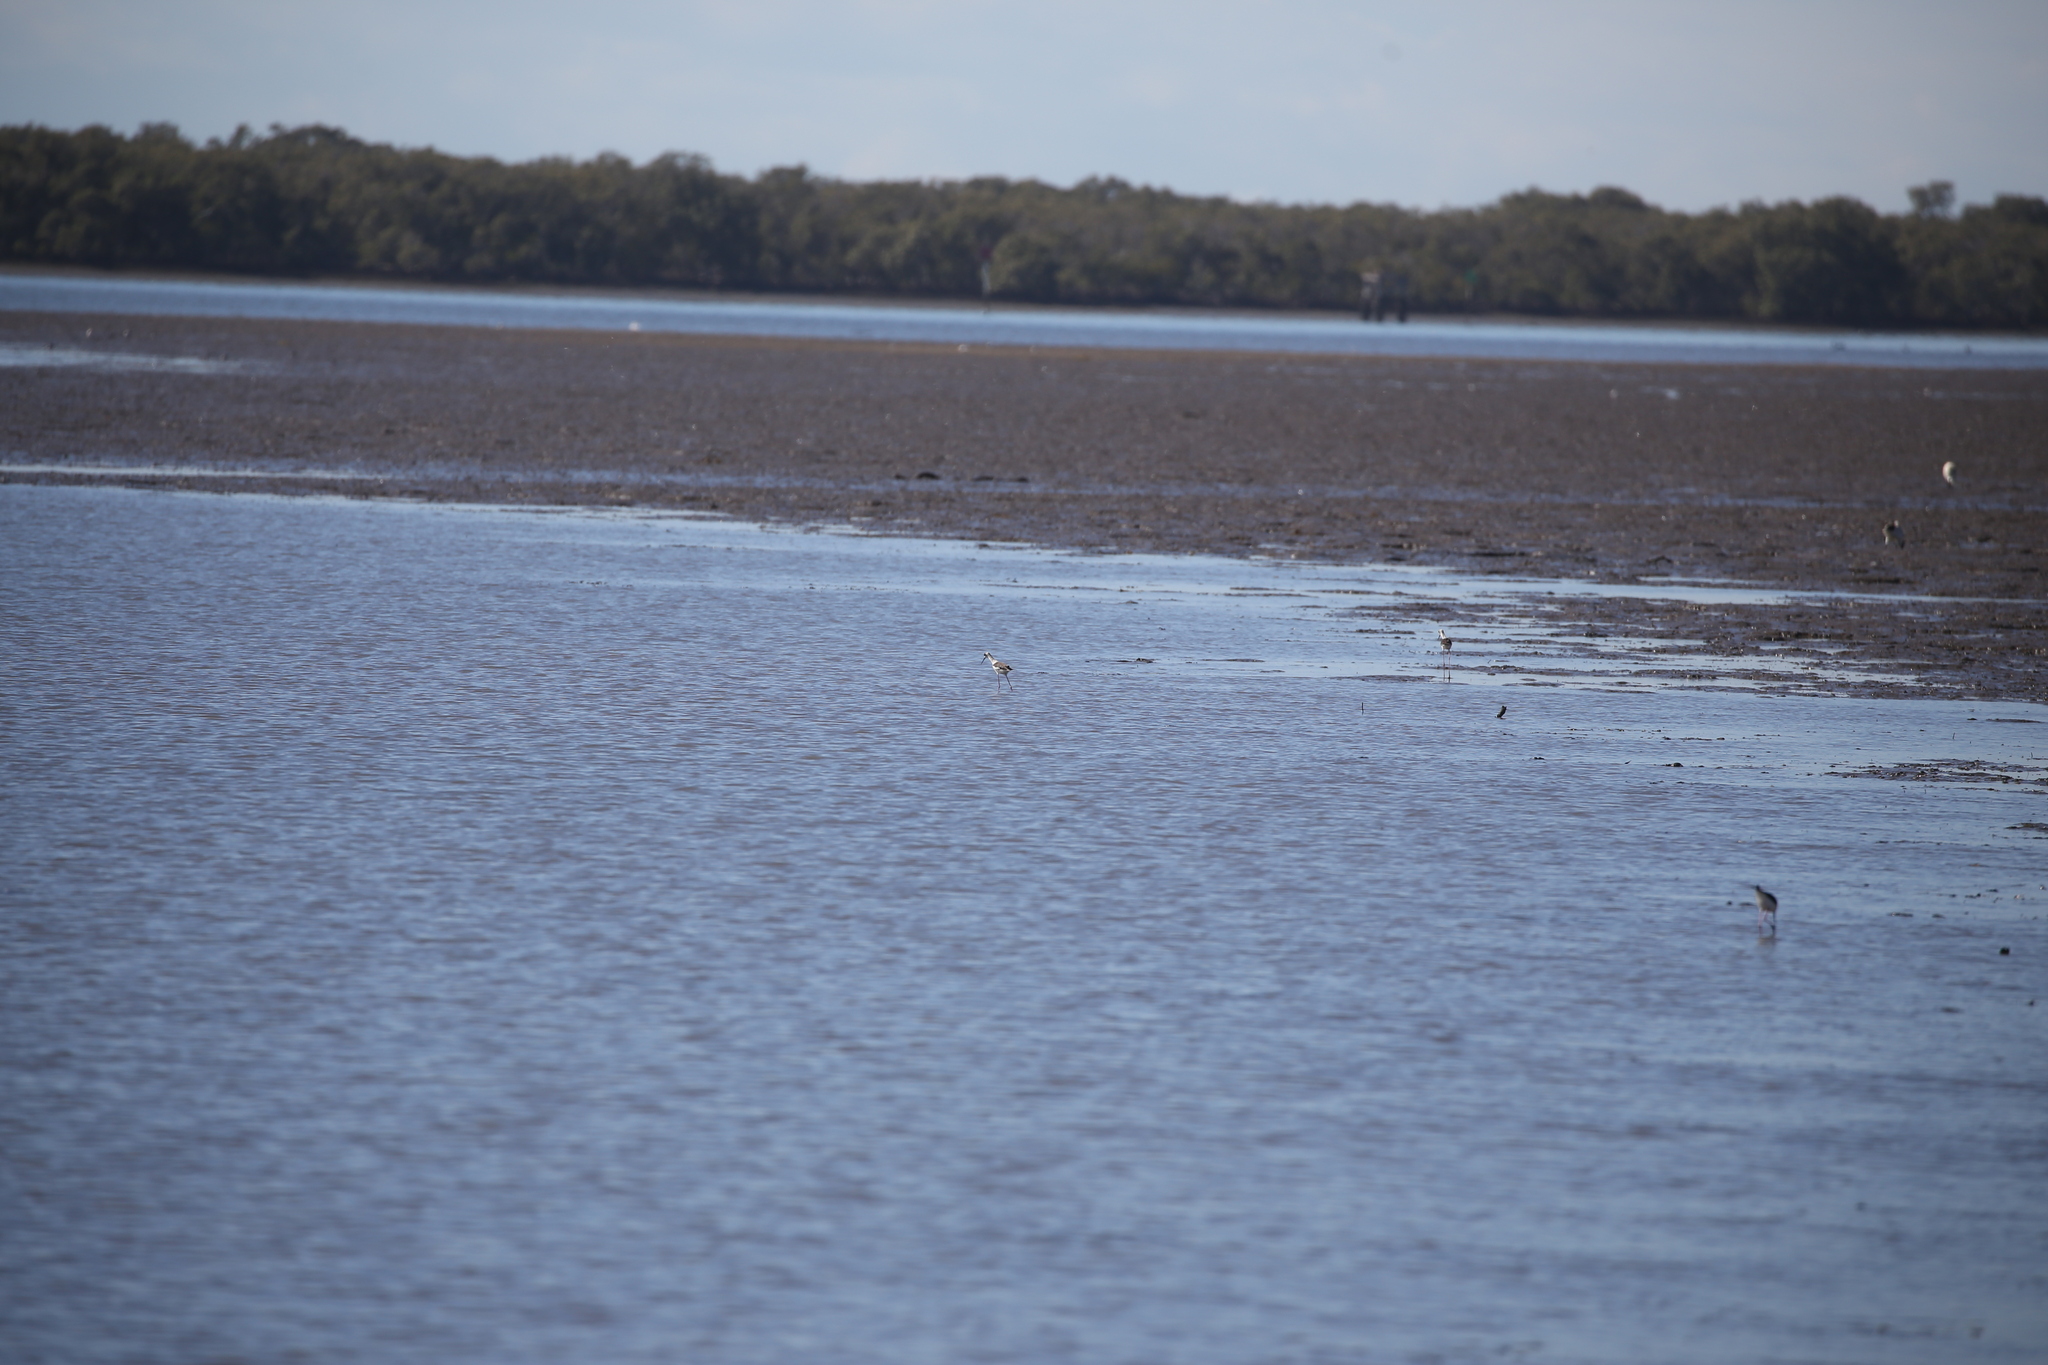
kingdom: Animalia
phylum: Chordata
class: Aves
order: Charadriiformes
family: Recurvirostridae
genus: Himantopus
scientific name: Himantopus leucocephalus
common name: White-headed stilt
